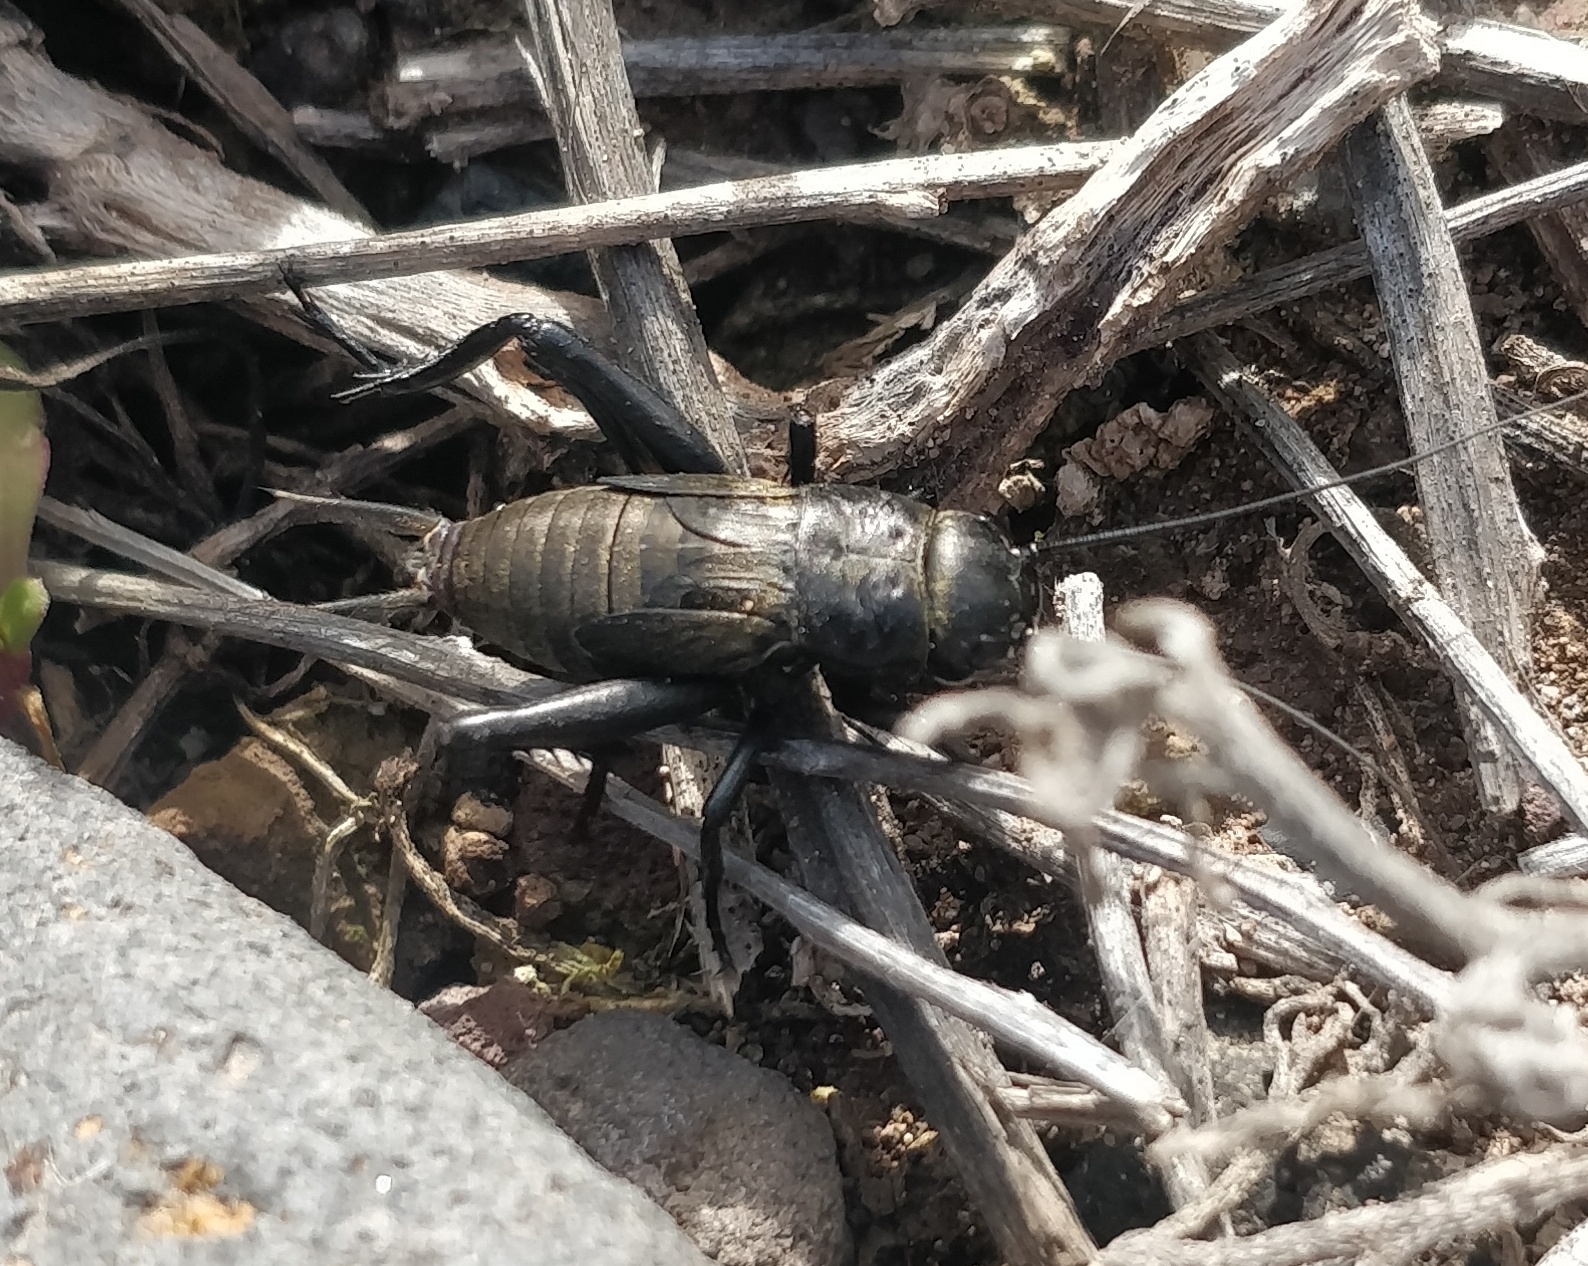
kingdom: Animalia
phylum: Arthropoda
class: Insecta
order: Orthoptera
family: Gryllidae
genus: Gryllus
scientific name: Gryllus bimaculatus
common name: Two-spotted cricket
